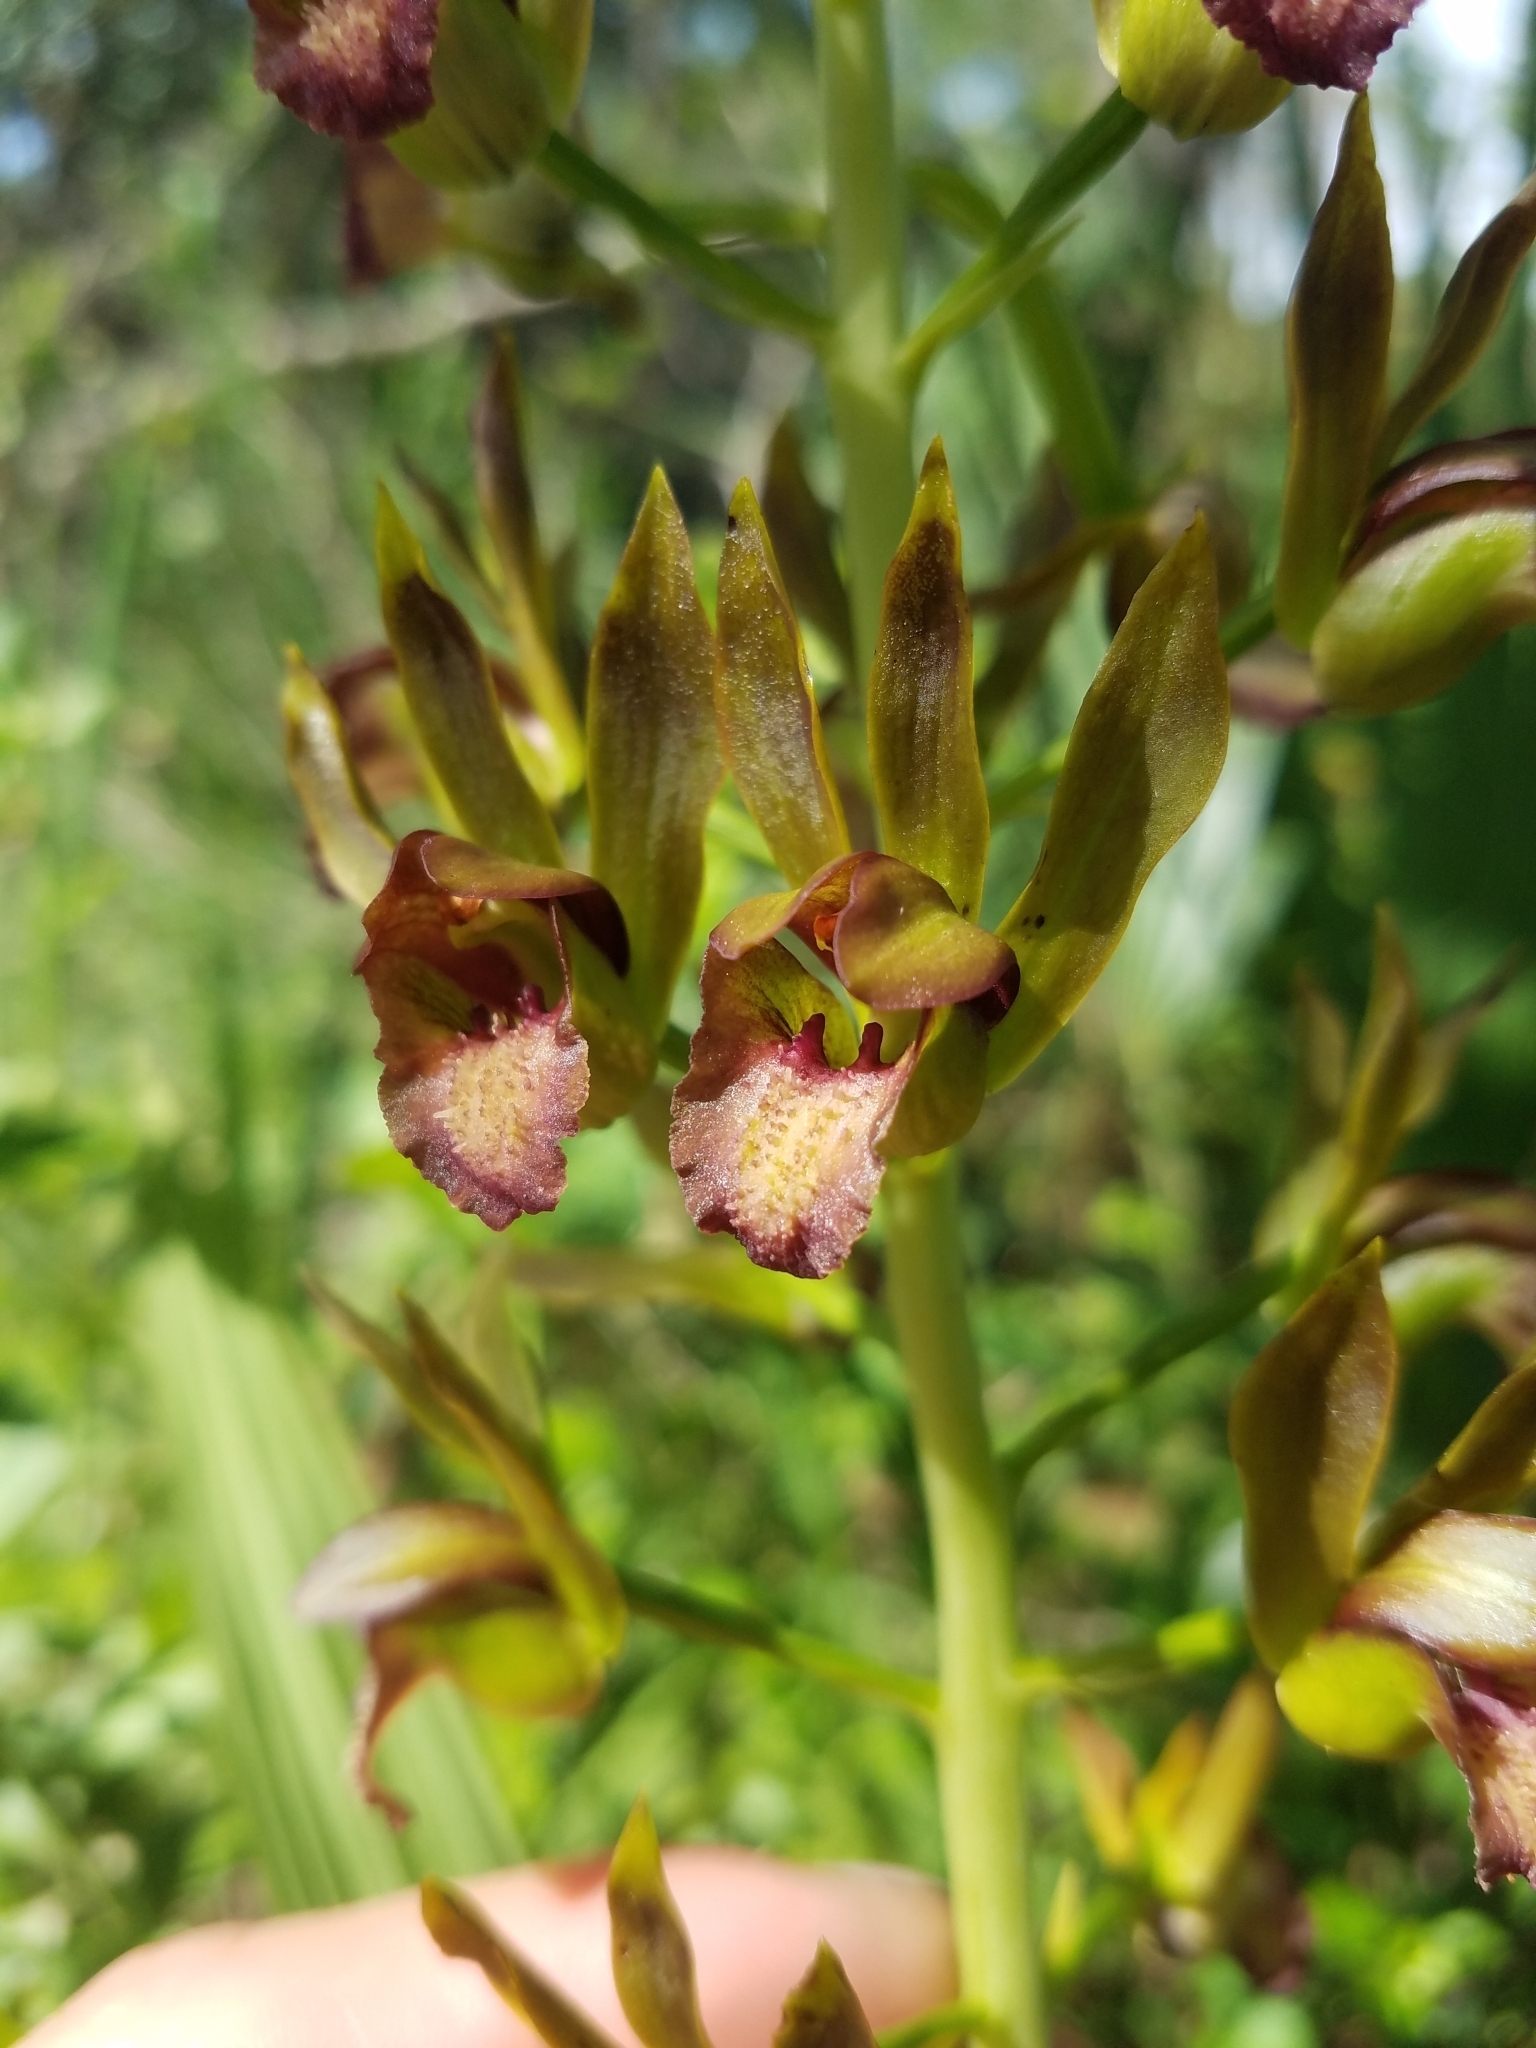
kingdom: Plantae
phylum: Tracheophyta
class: Liliopsida
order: Asparagales
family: Orchidaceae
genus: Eulophia
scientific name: Eulophia alta
